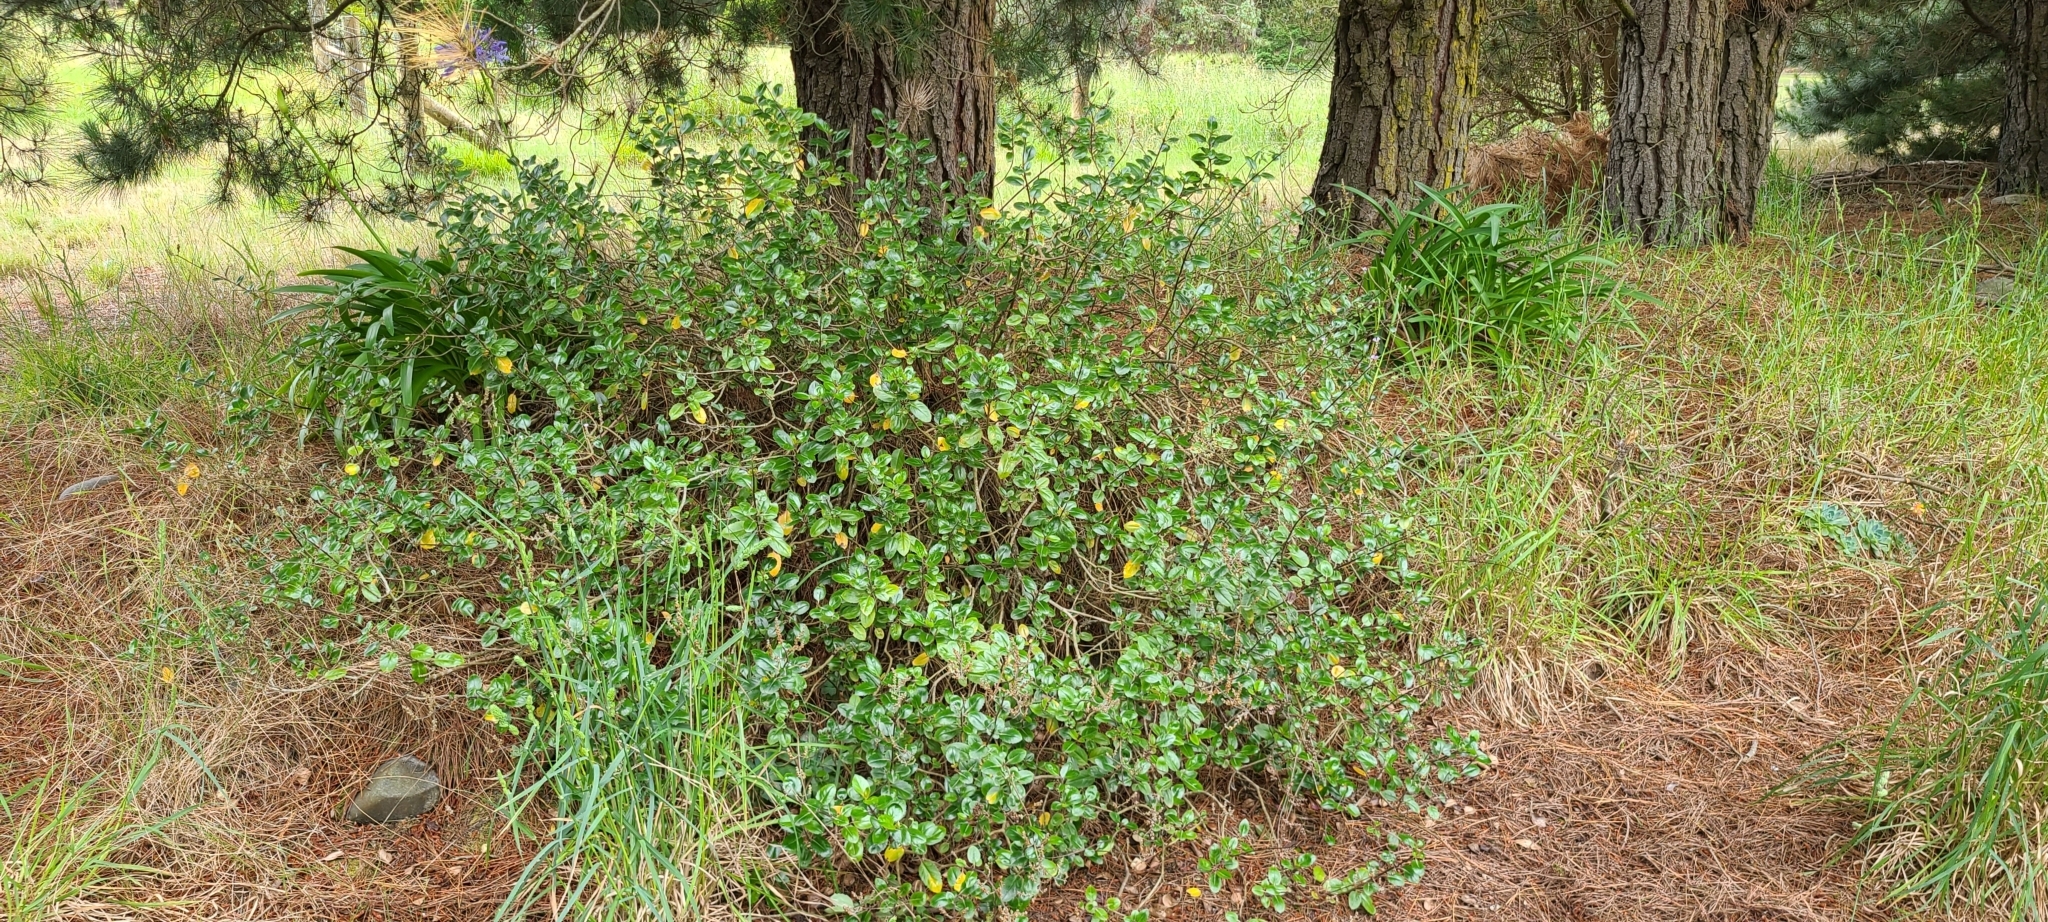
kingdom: Plantae
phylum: Tracheophyta
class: Magnoliopsida
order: Lamiales
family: Plantaginaceae
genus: Veronica
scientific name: Veronica hulkeana
